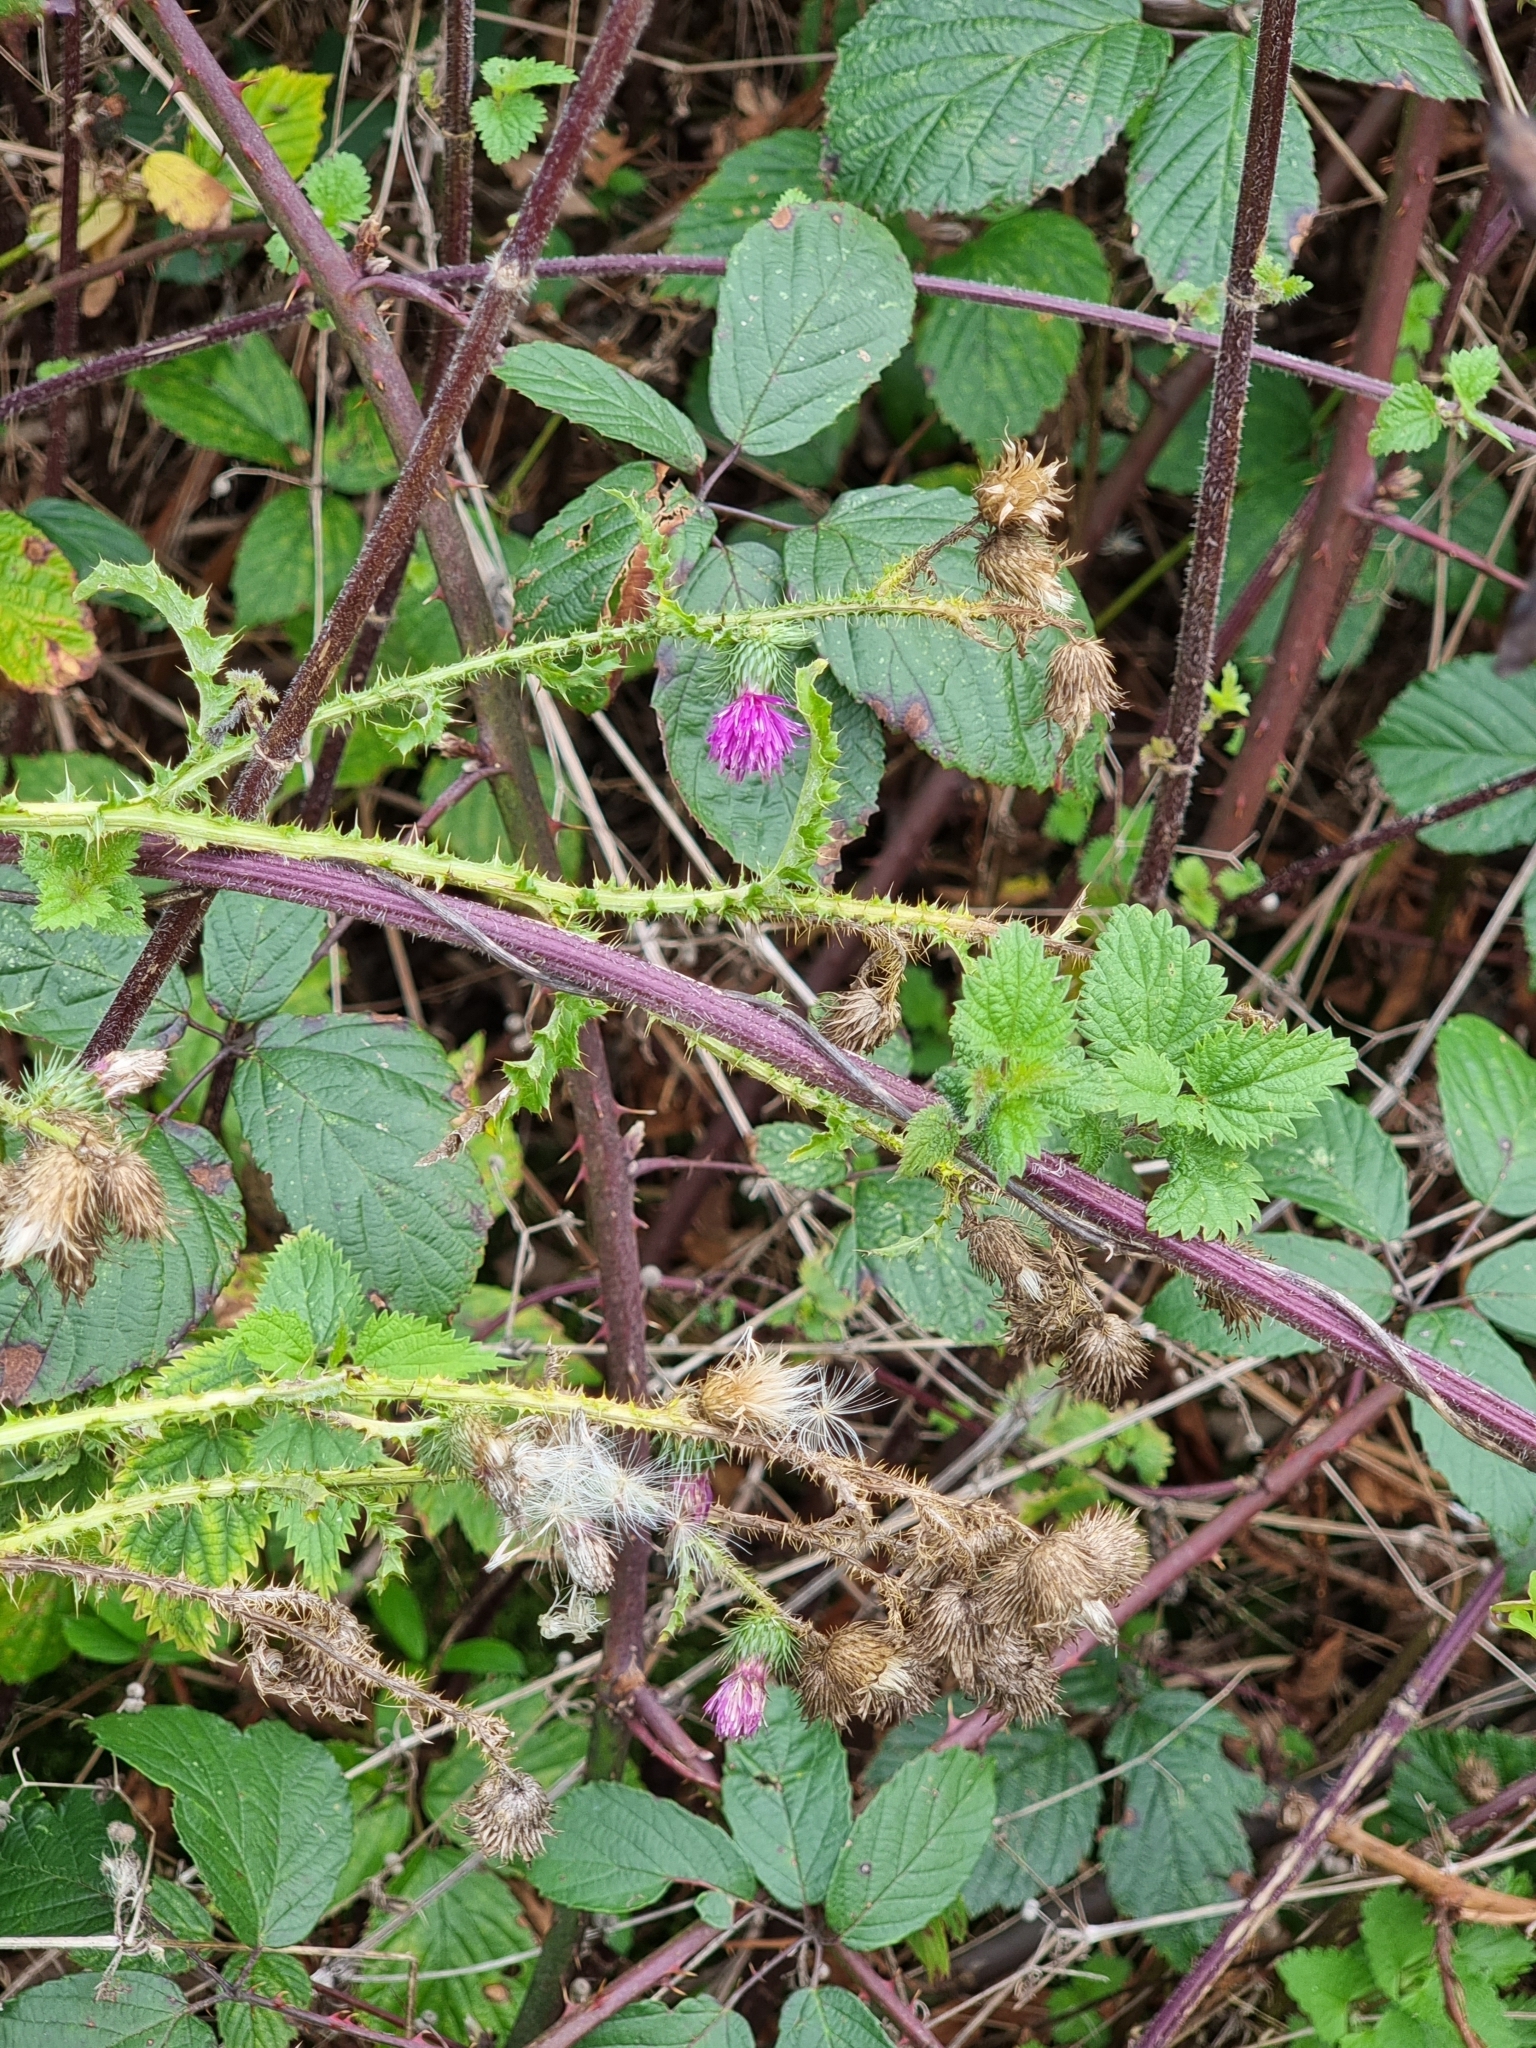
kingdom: Plantae
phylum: Tracheophyta
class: Magnoliopsida
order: Asterales
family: Asteraceae
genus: Carduus
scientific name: Carduus crispus
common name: Welted thistle
